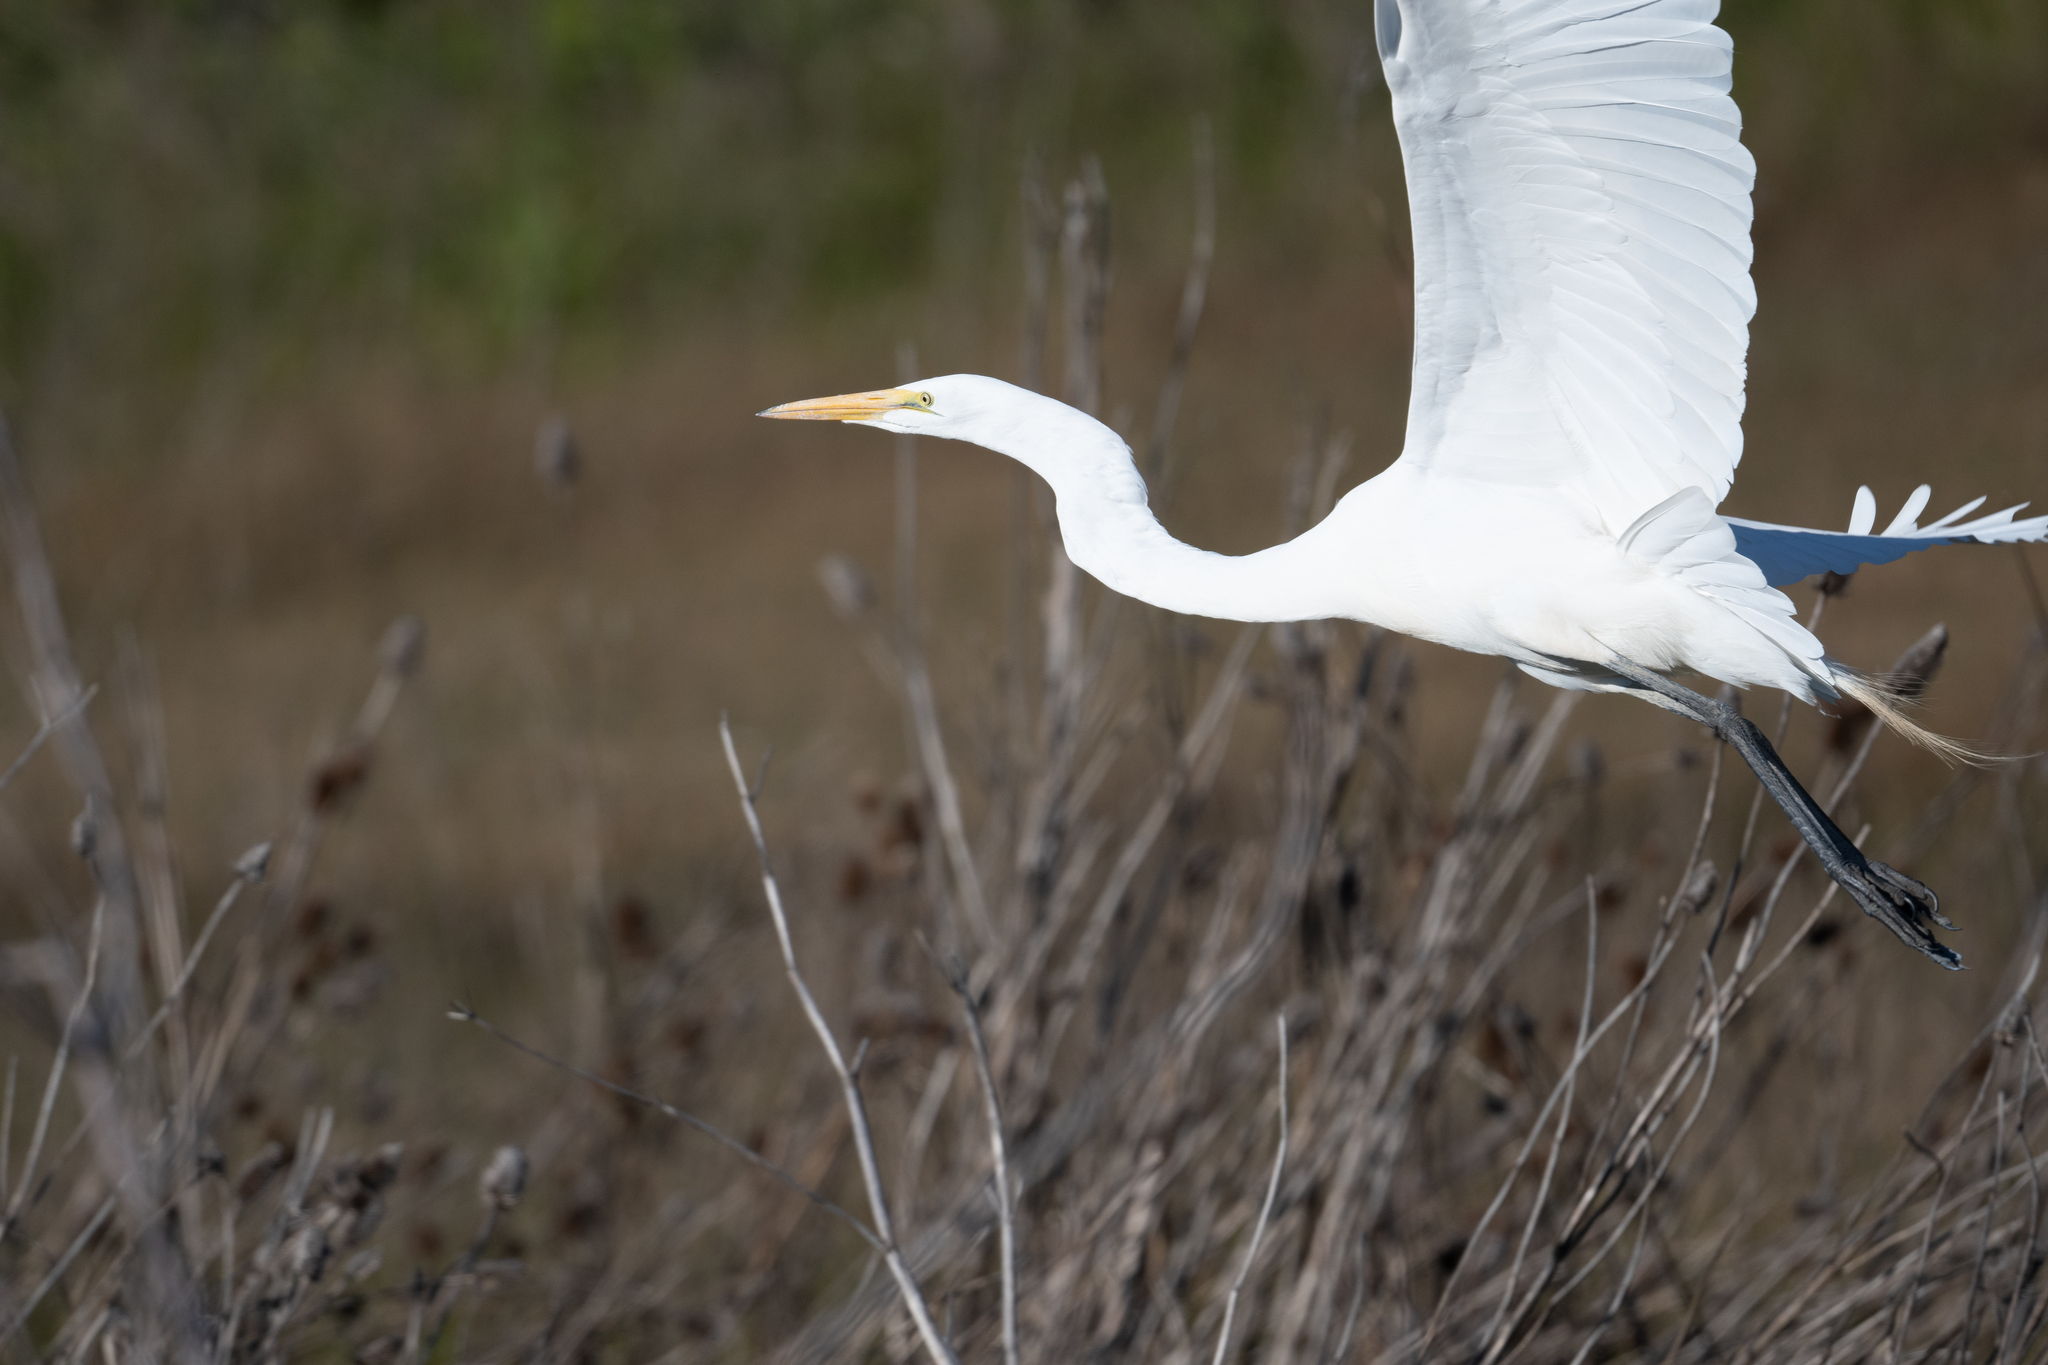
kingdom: Animalia
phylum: Chordata
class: Aves
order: Pelecaniformes
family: Ardeidae
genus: Ardea
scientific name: Ardea alba
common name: Great egret
